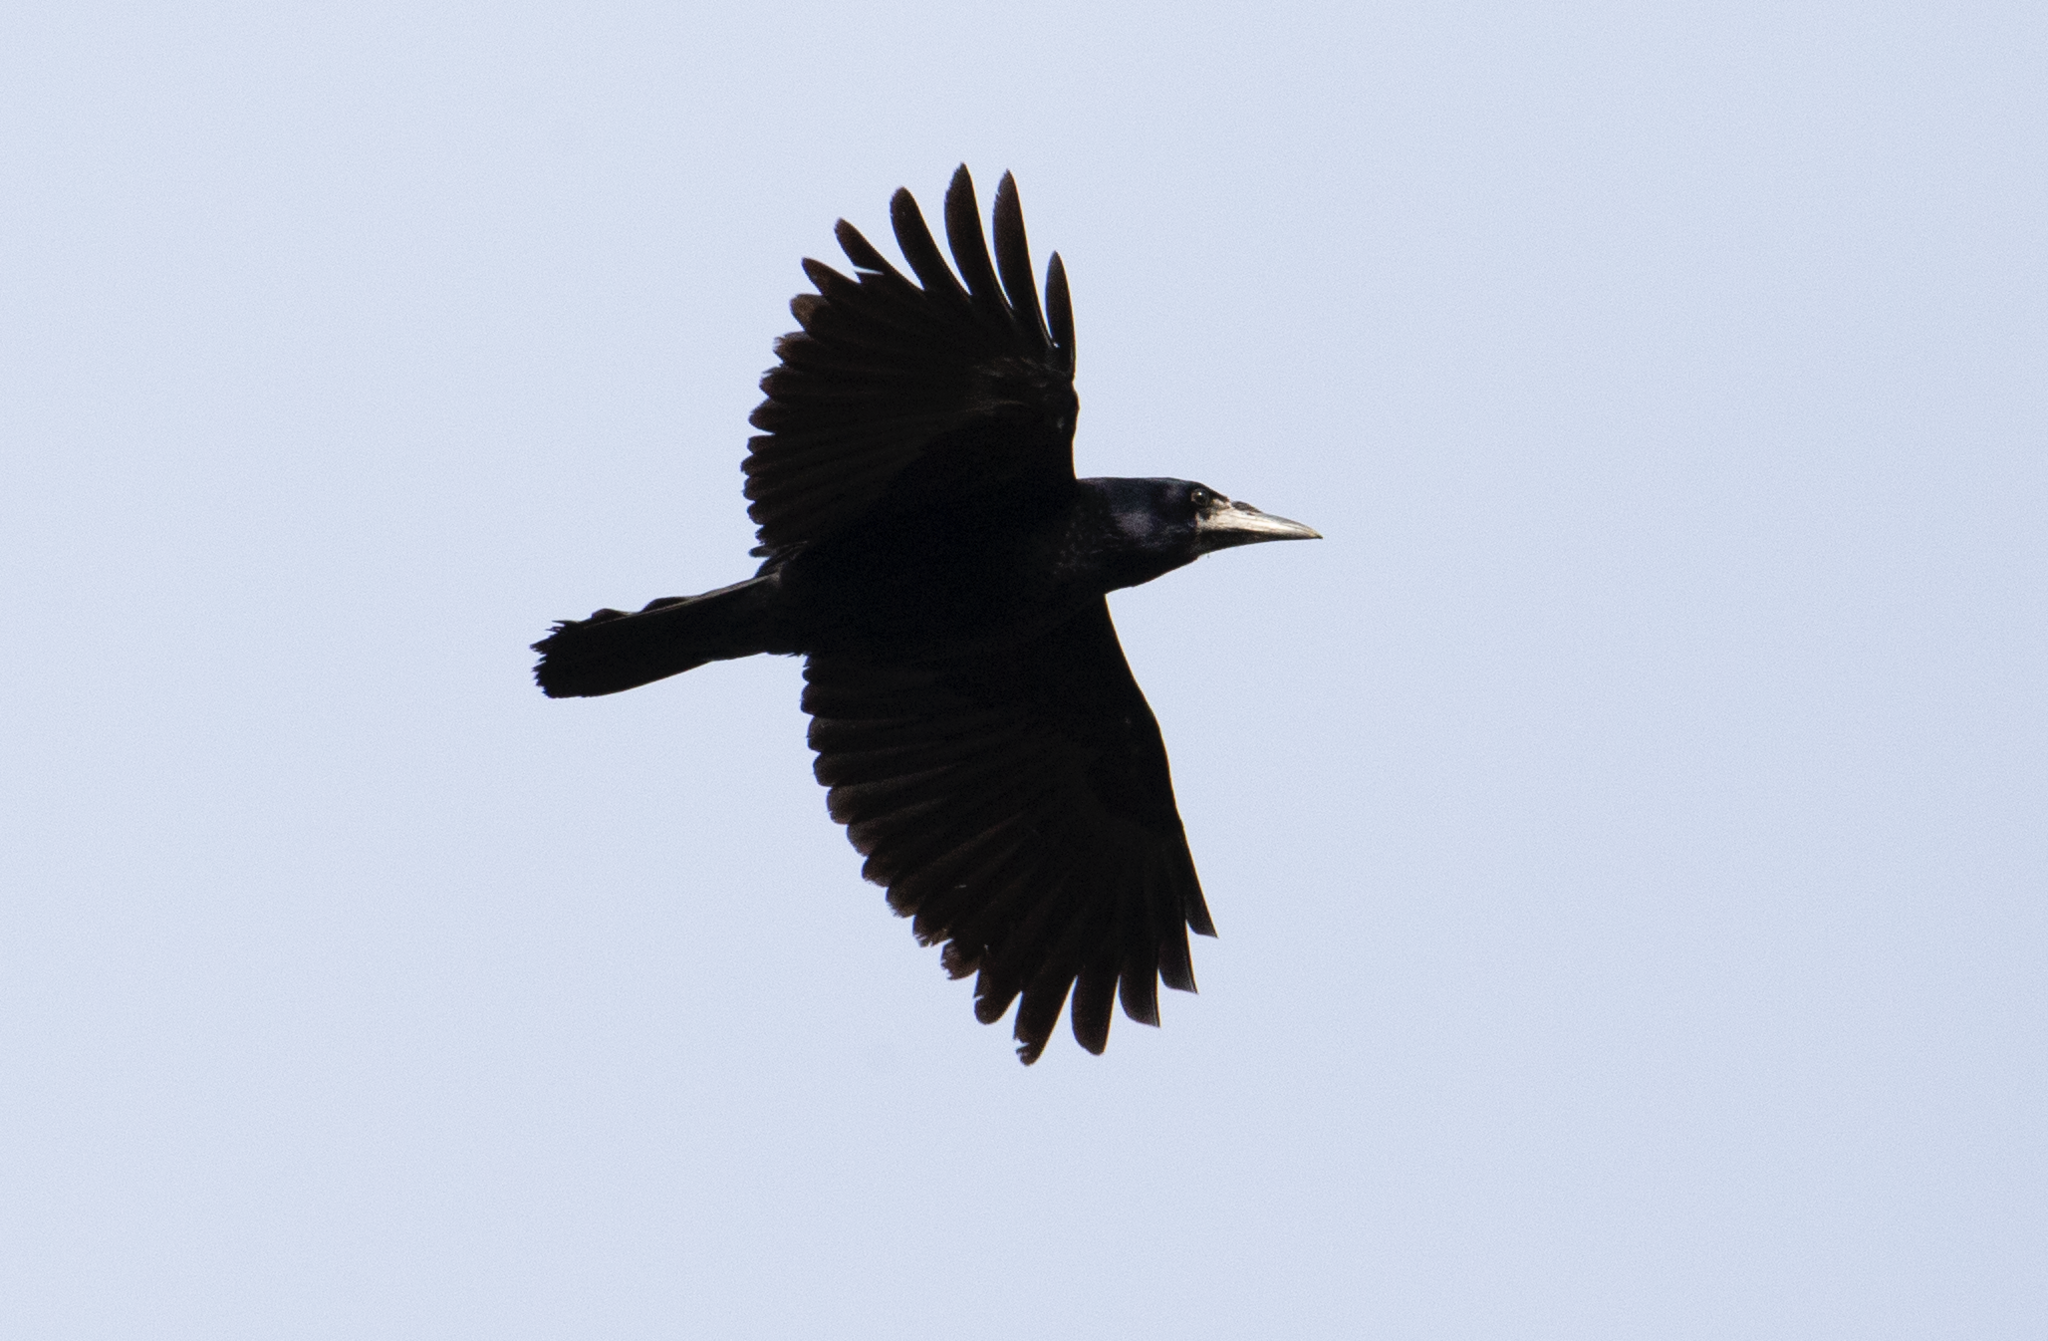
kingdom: Animalia
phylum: Chordata
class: Aves
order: Passeriformes
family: Corvidae
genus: Corvus
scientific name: Corvus frugilegus
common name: Rook
